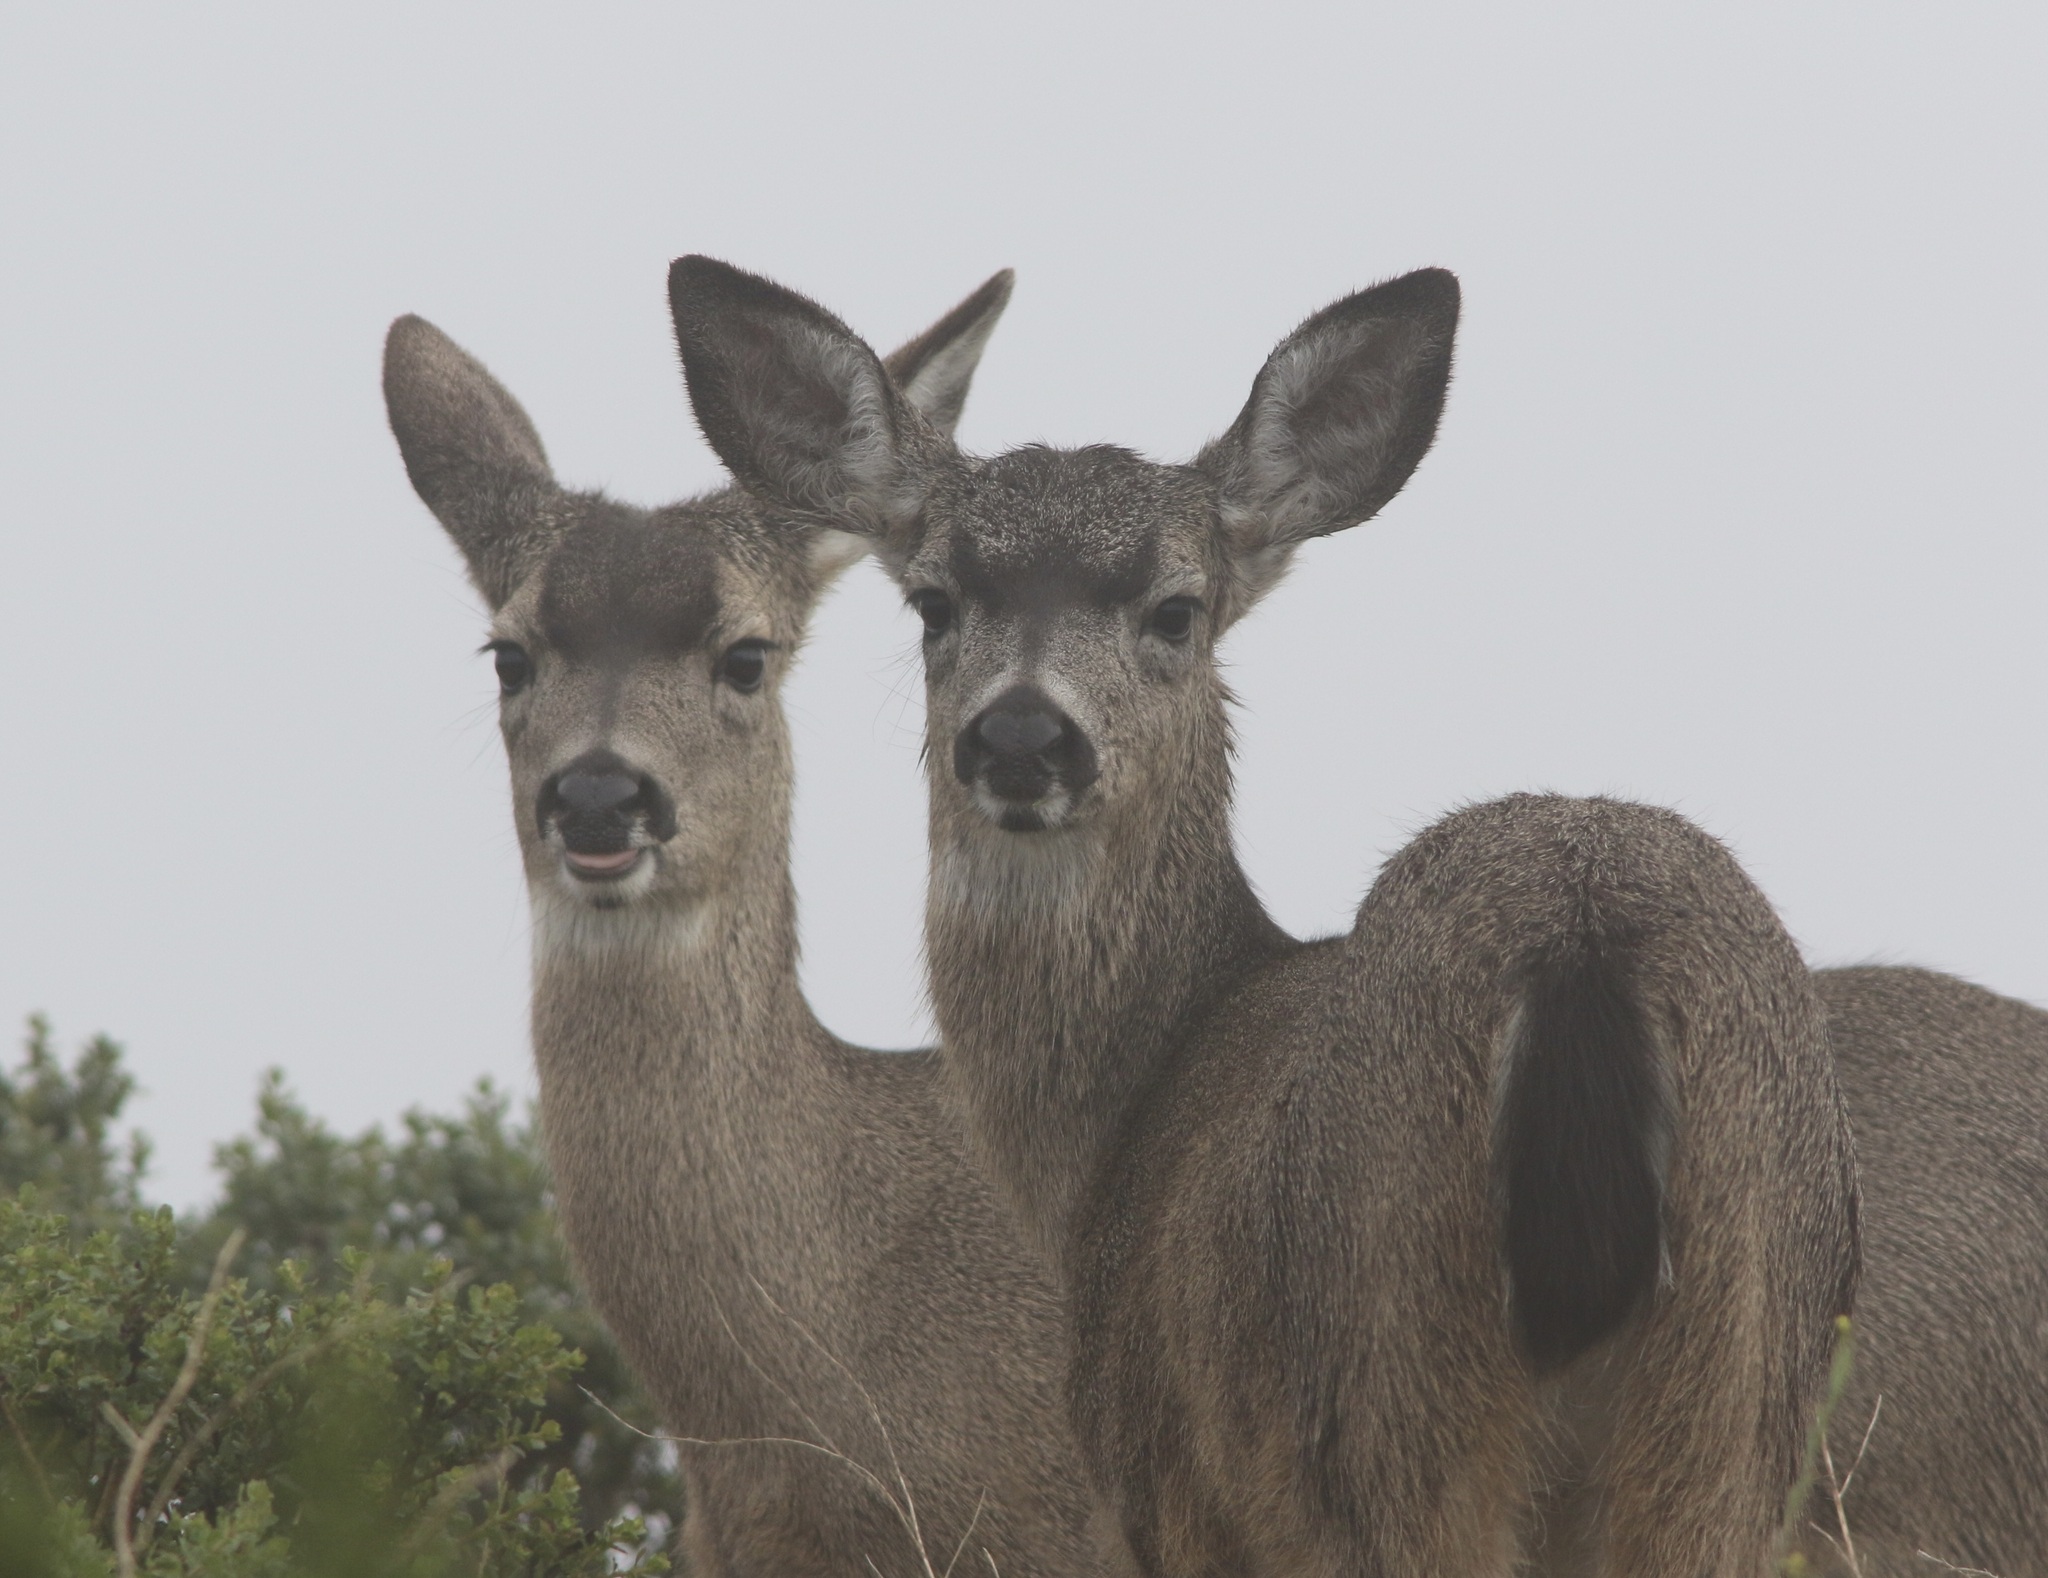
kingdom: Animalia
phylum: Chordata
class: Mammalia
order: Artiodactyla
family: Cervidae
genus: Odocoileus
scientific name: Odocoileus hemionus
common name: Mule deer
